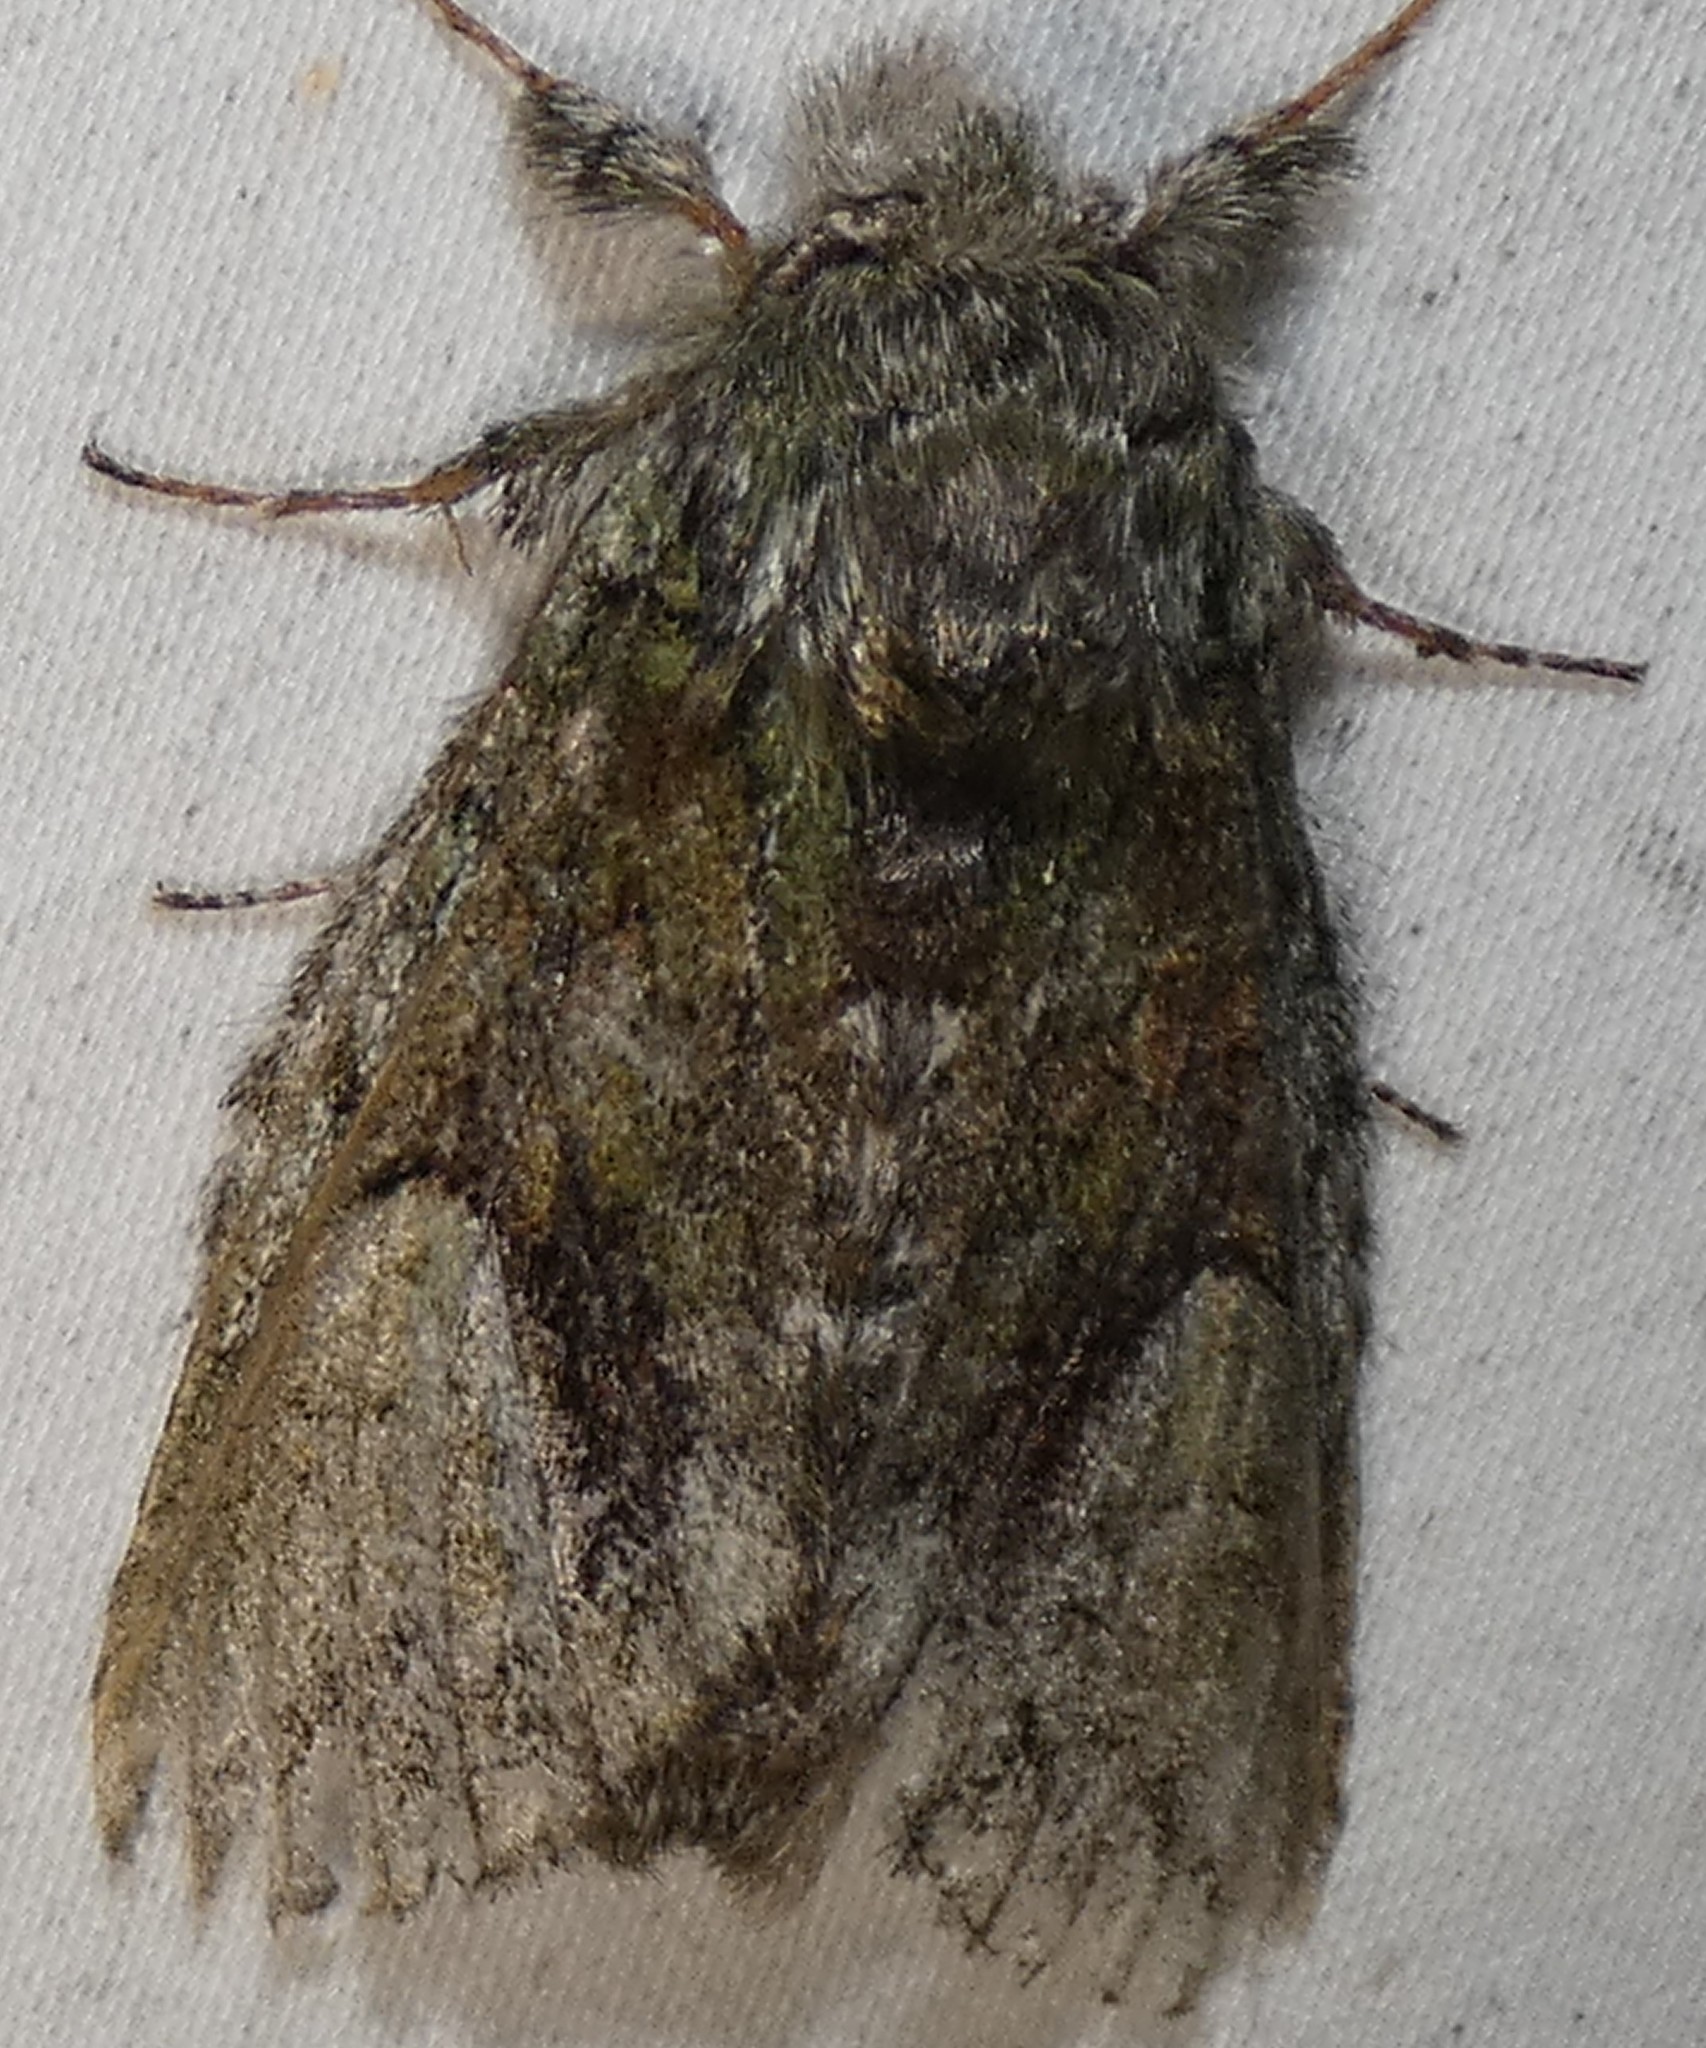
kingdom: Animalia
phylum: Arthropoda
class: Insecta
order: Lepidoptera
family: Notodontidae
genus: Heterocampa
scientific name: Heterocampa
